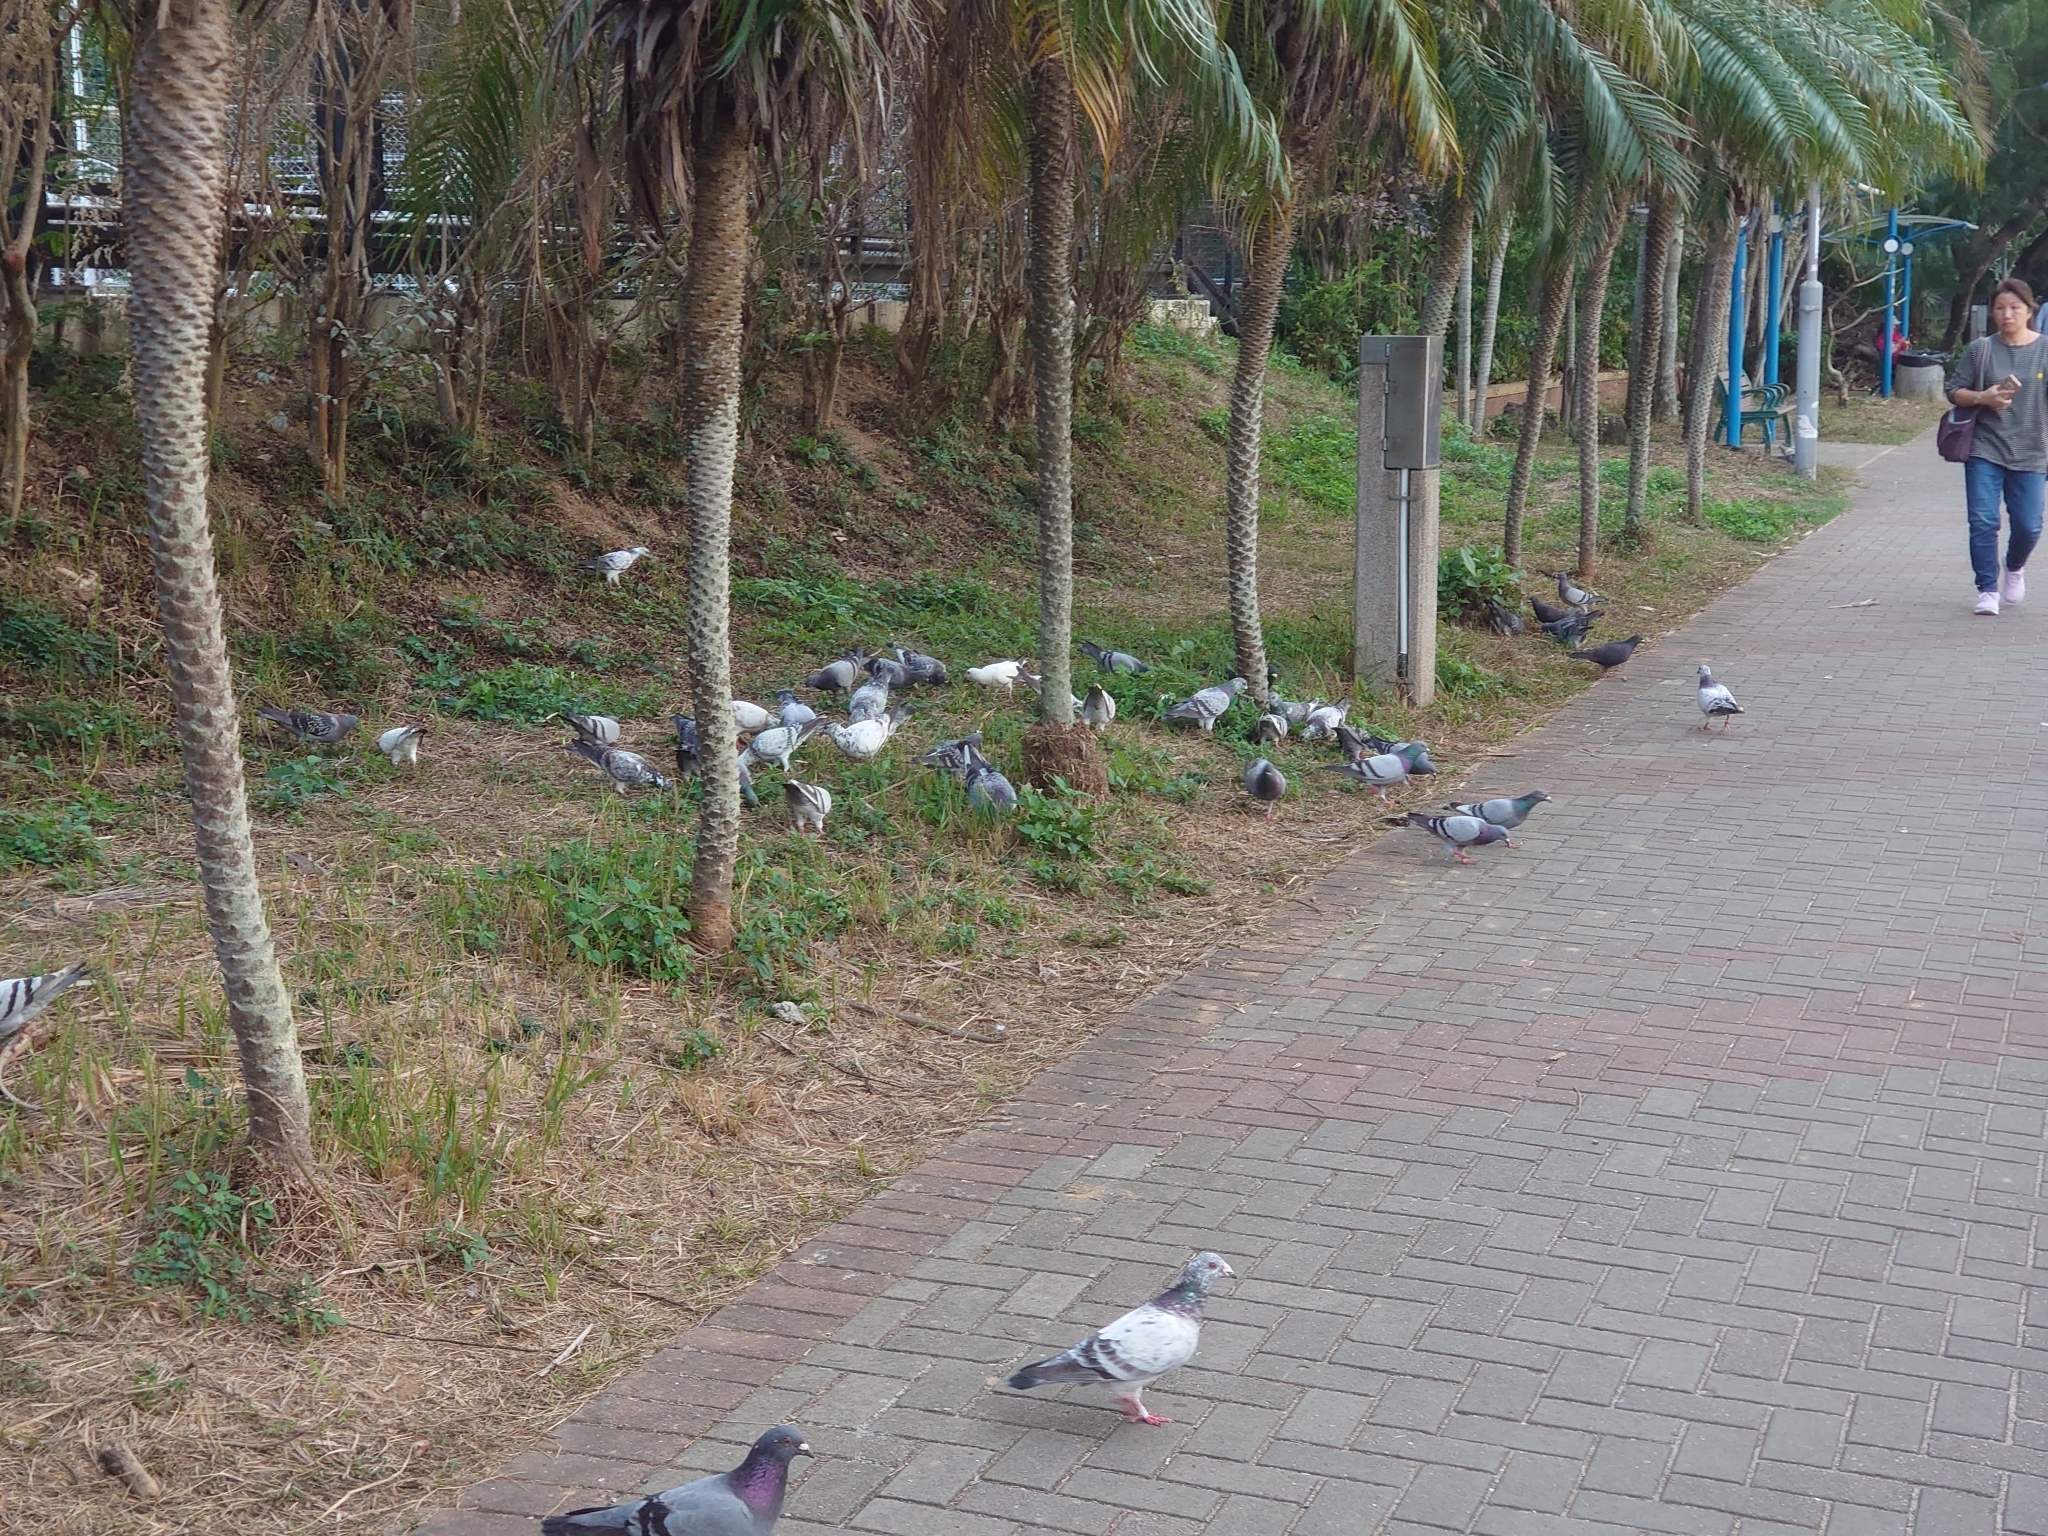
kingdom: Animalia
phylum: Chordata
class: Aves
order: Columbiformes
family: Columbidae
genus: Columba
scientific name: Columba livia
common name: Rock pigeon
